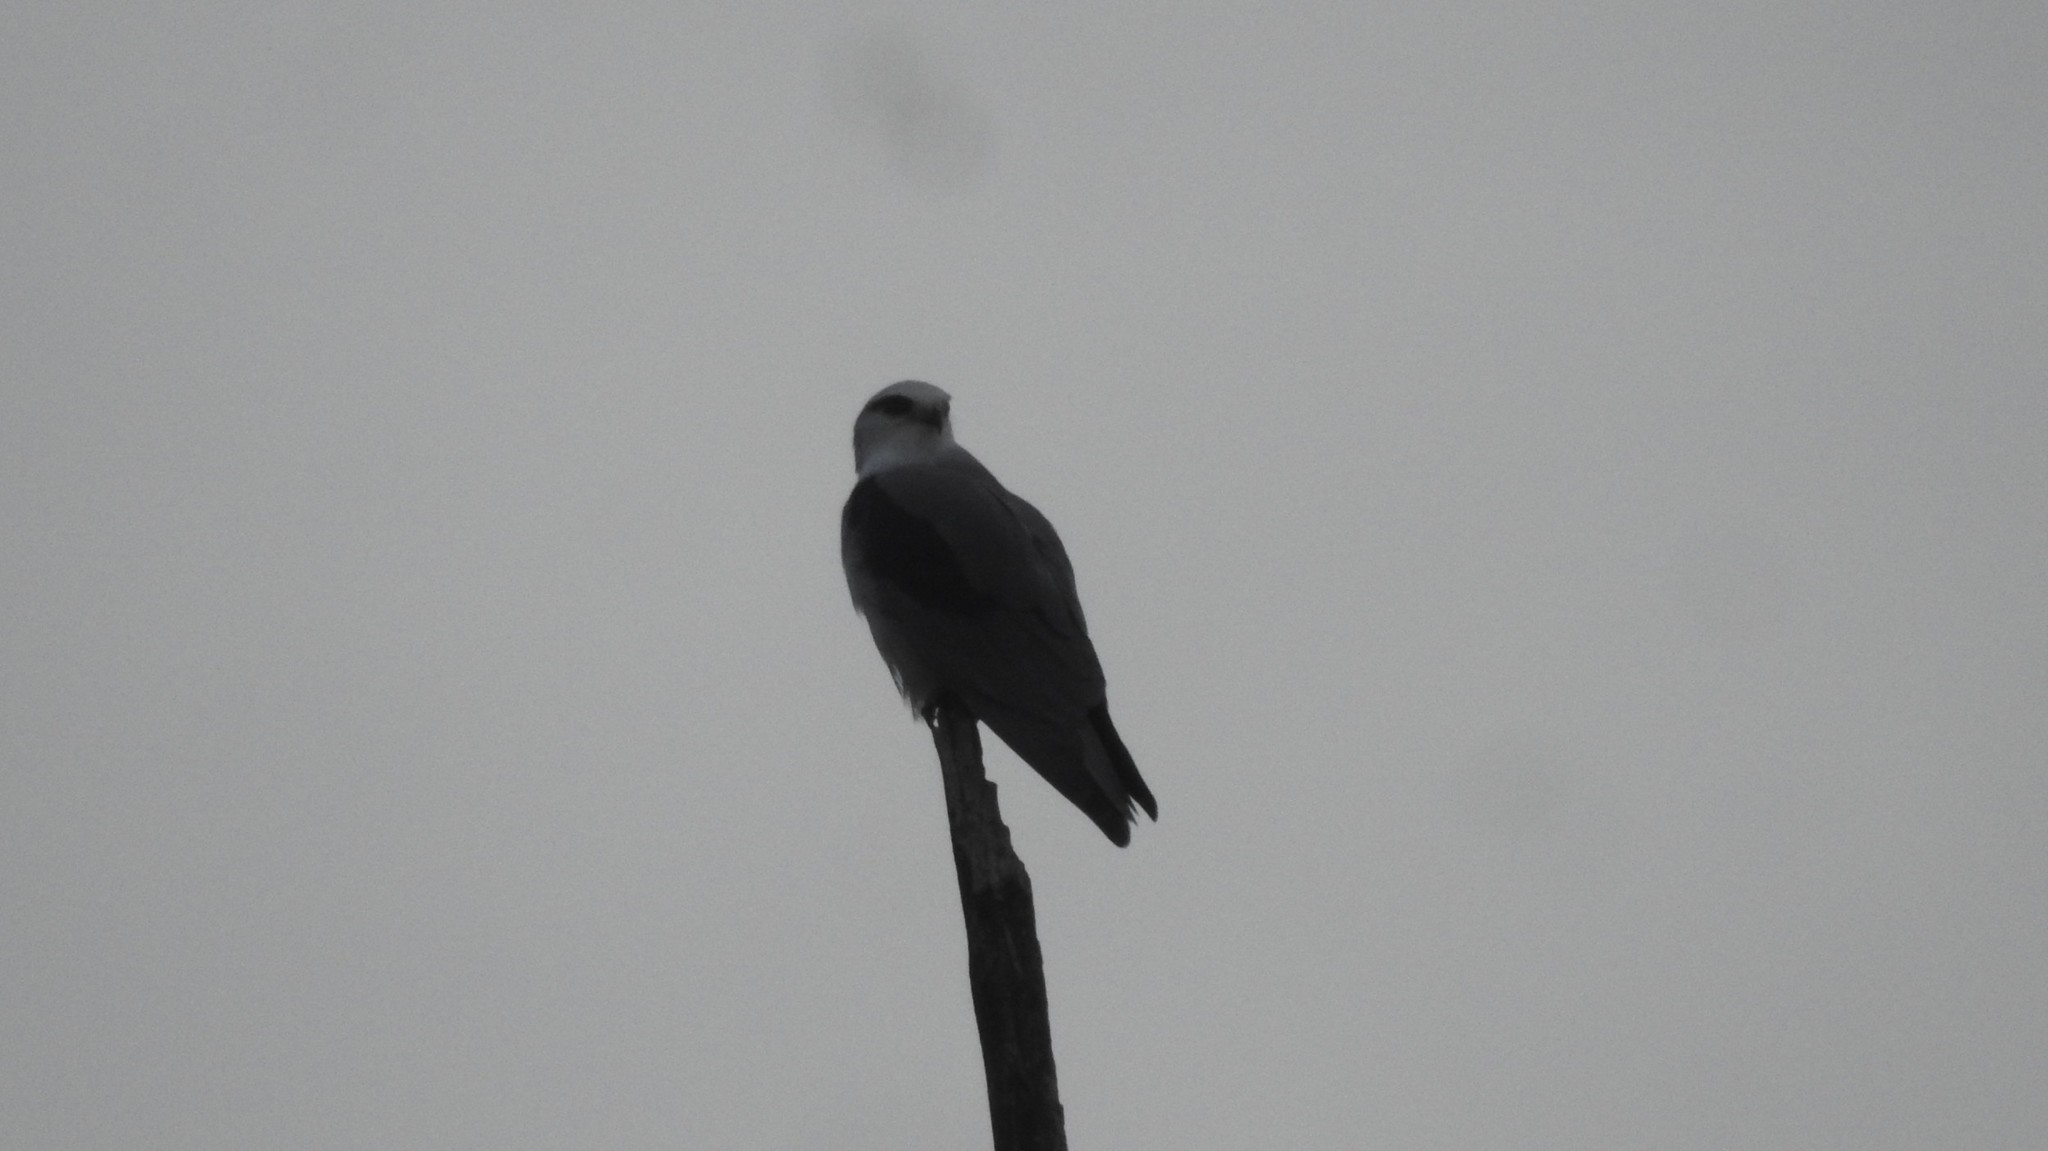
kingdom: Animalia
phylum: Chordata
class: Aves
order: Accipitriformes
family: Accipitridae
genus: Elanus
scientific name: Elanus caeruleus
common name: Black-winged kite
